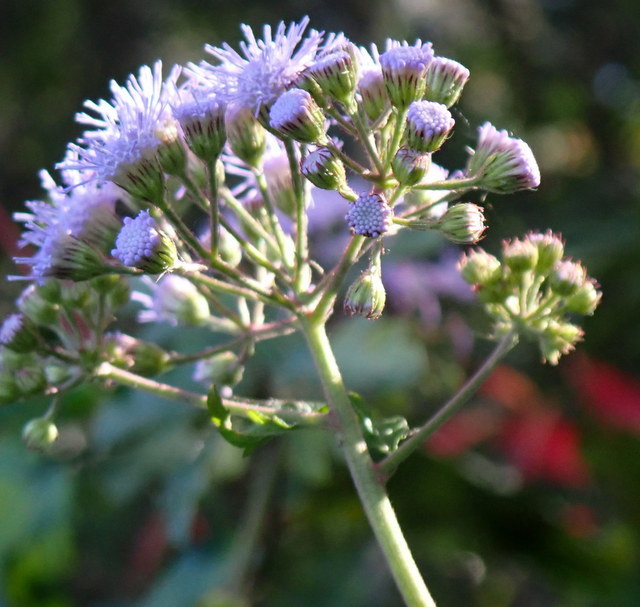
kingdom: Plantae
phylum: Tracheophyta
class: Magnoliopsida
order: Asterales
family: Asteraceae
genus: Conoclinium
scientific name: Conoclinium coelestinum
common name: Blue mistflower
